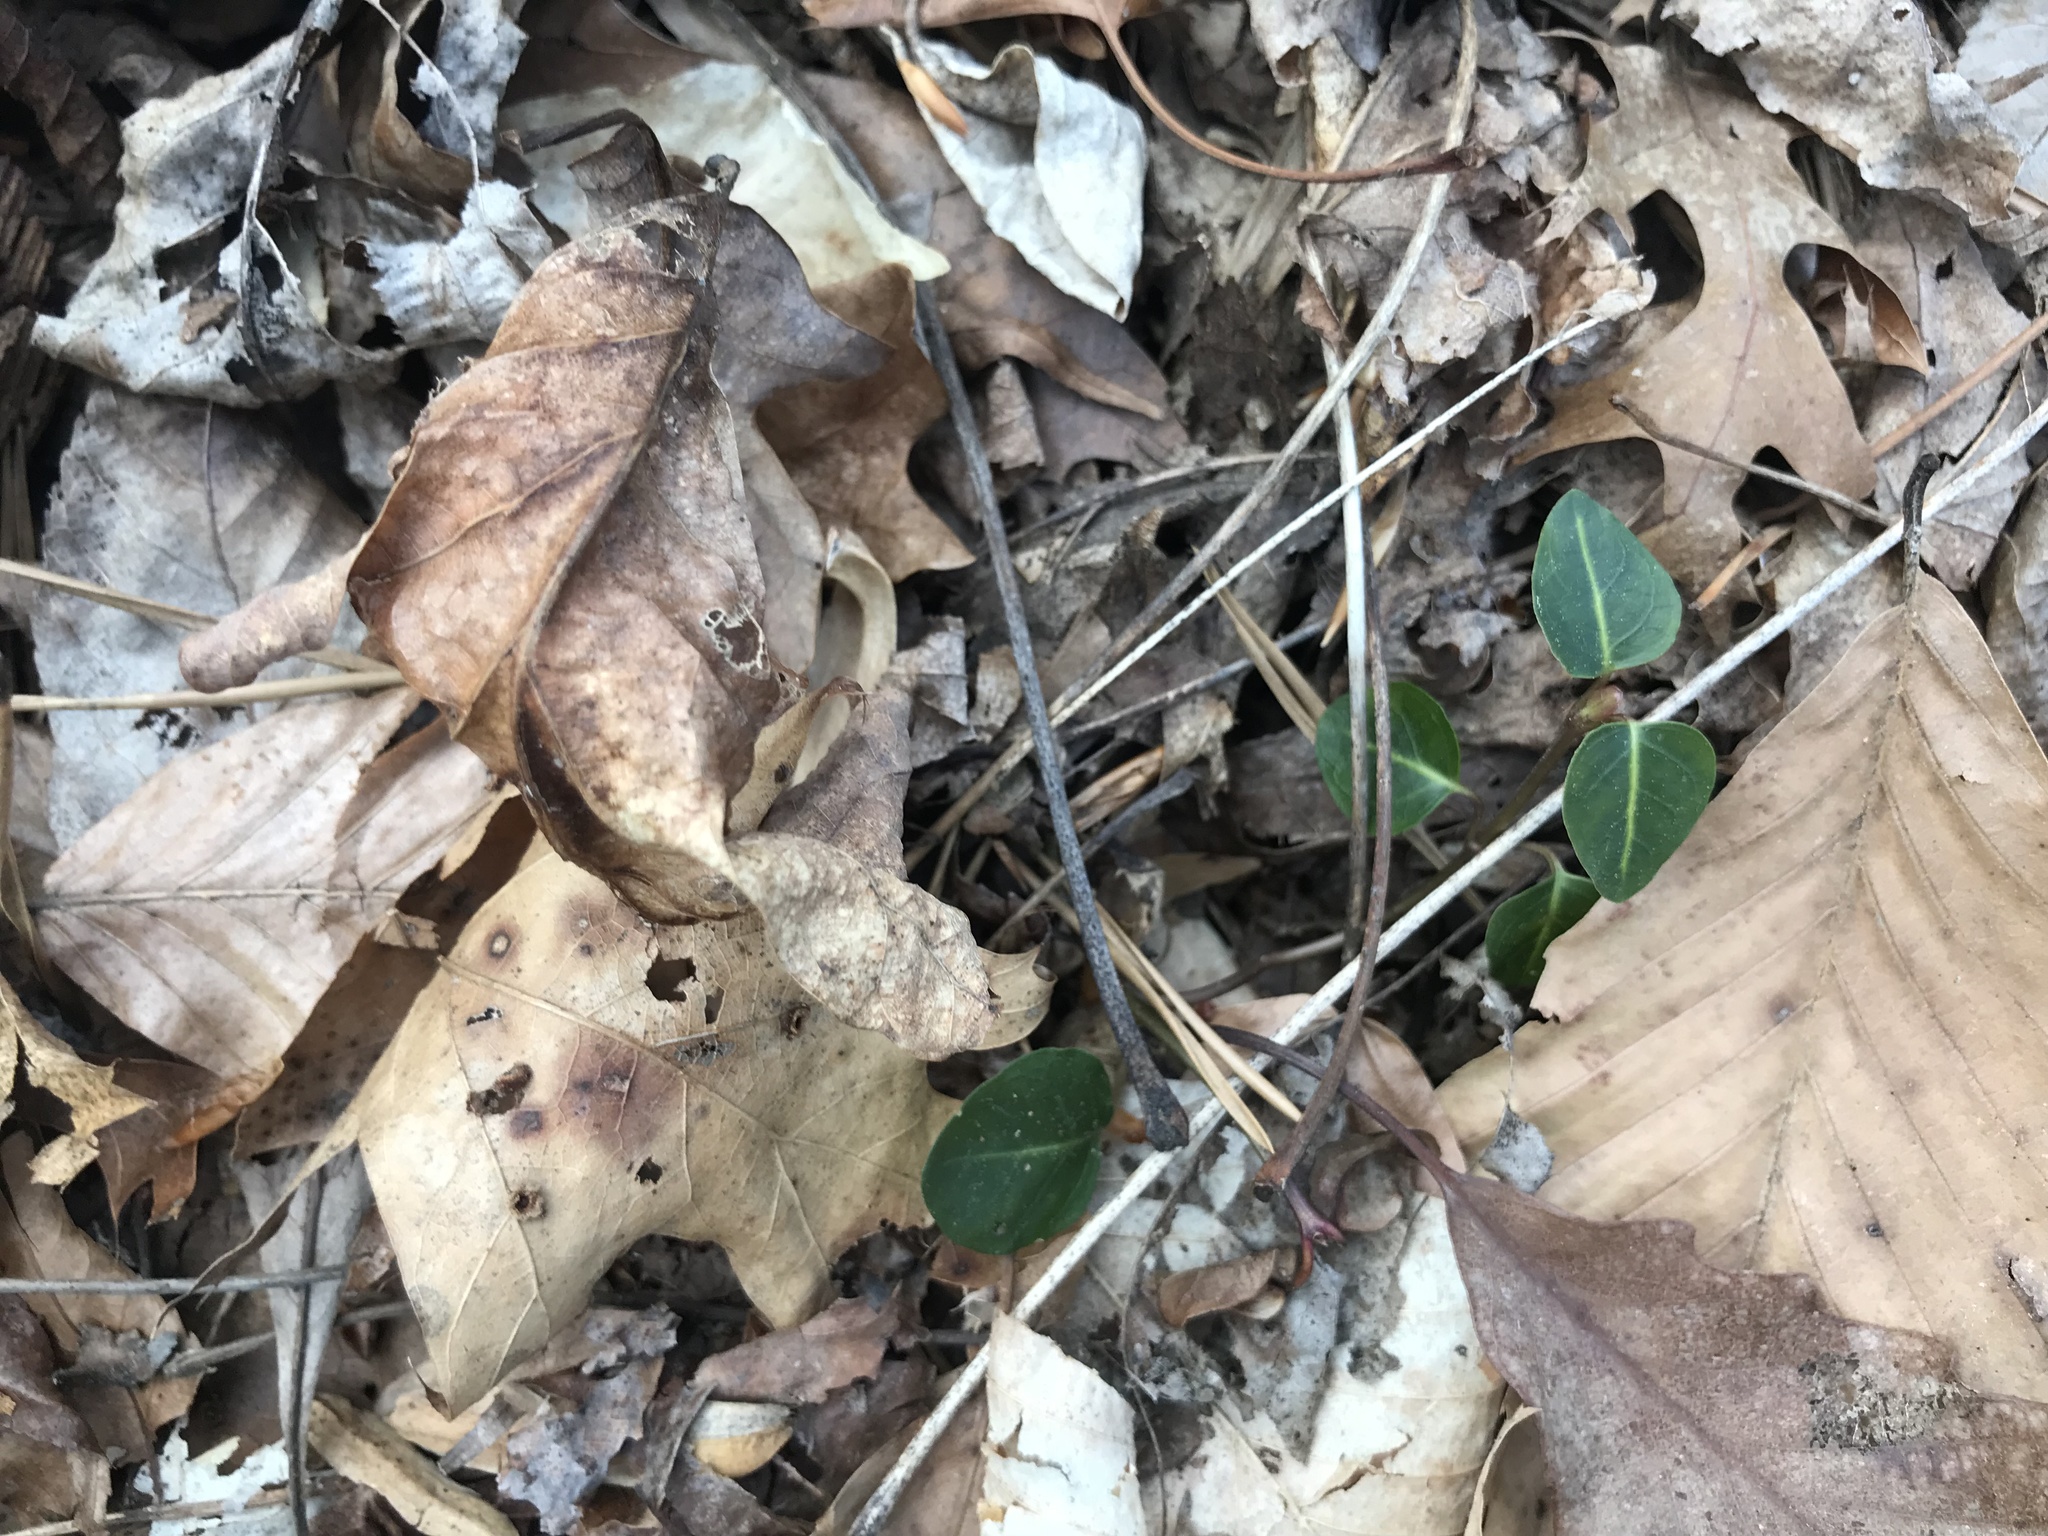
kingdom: Plantae
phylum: Tracheophyta
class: Magnoliopsida
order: Gentianales
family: Rubiaceae
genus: Mitchella
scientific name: Mitchella repens
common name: Partridge-berry
